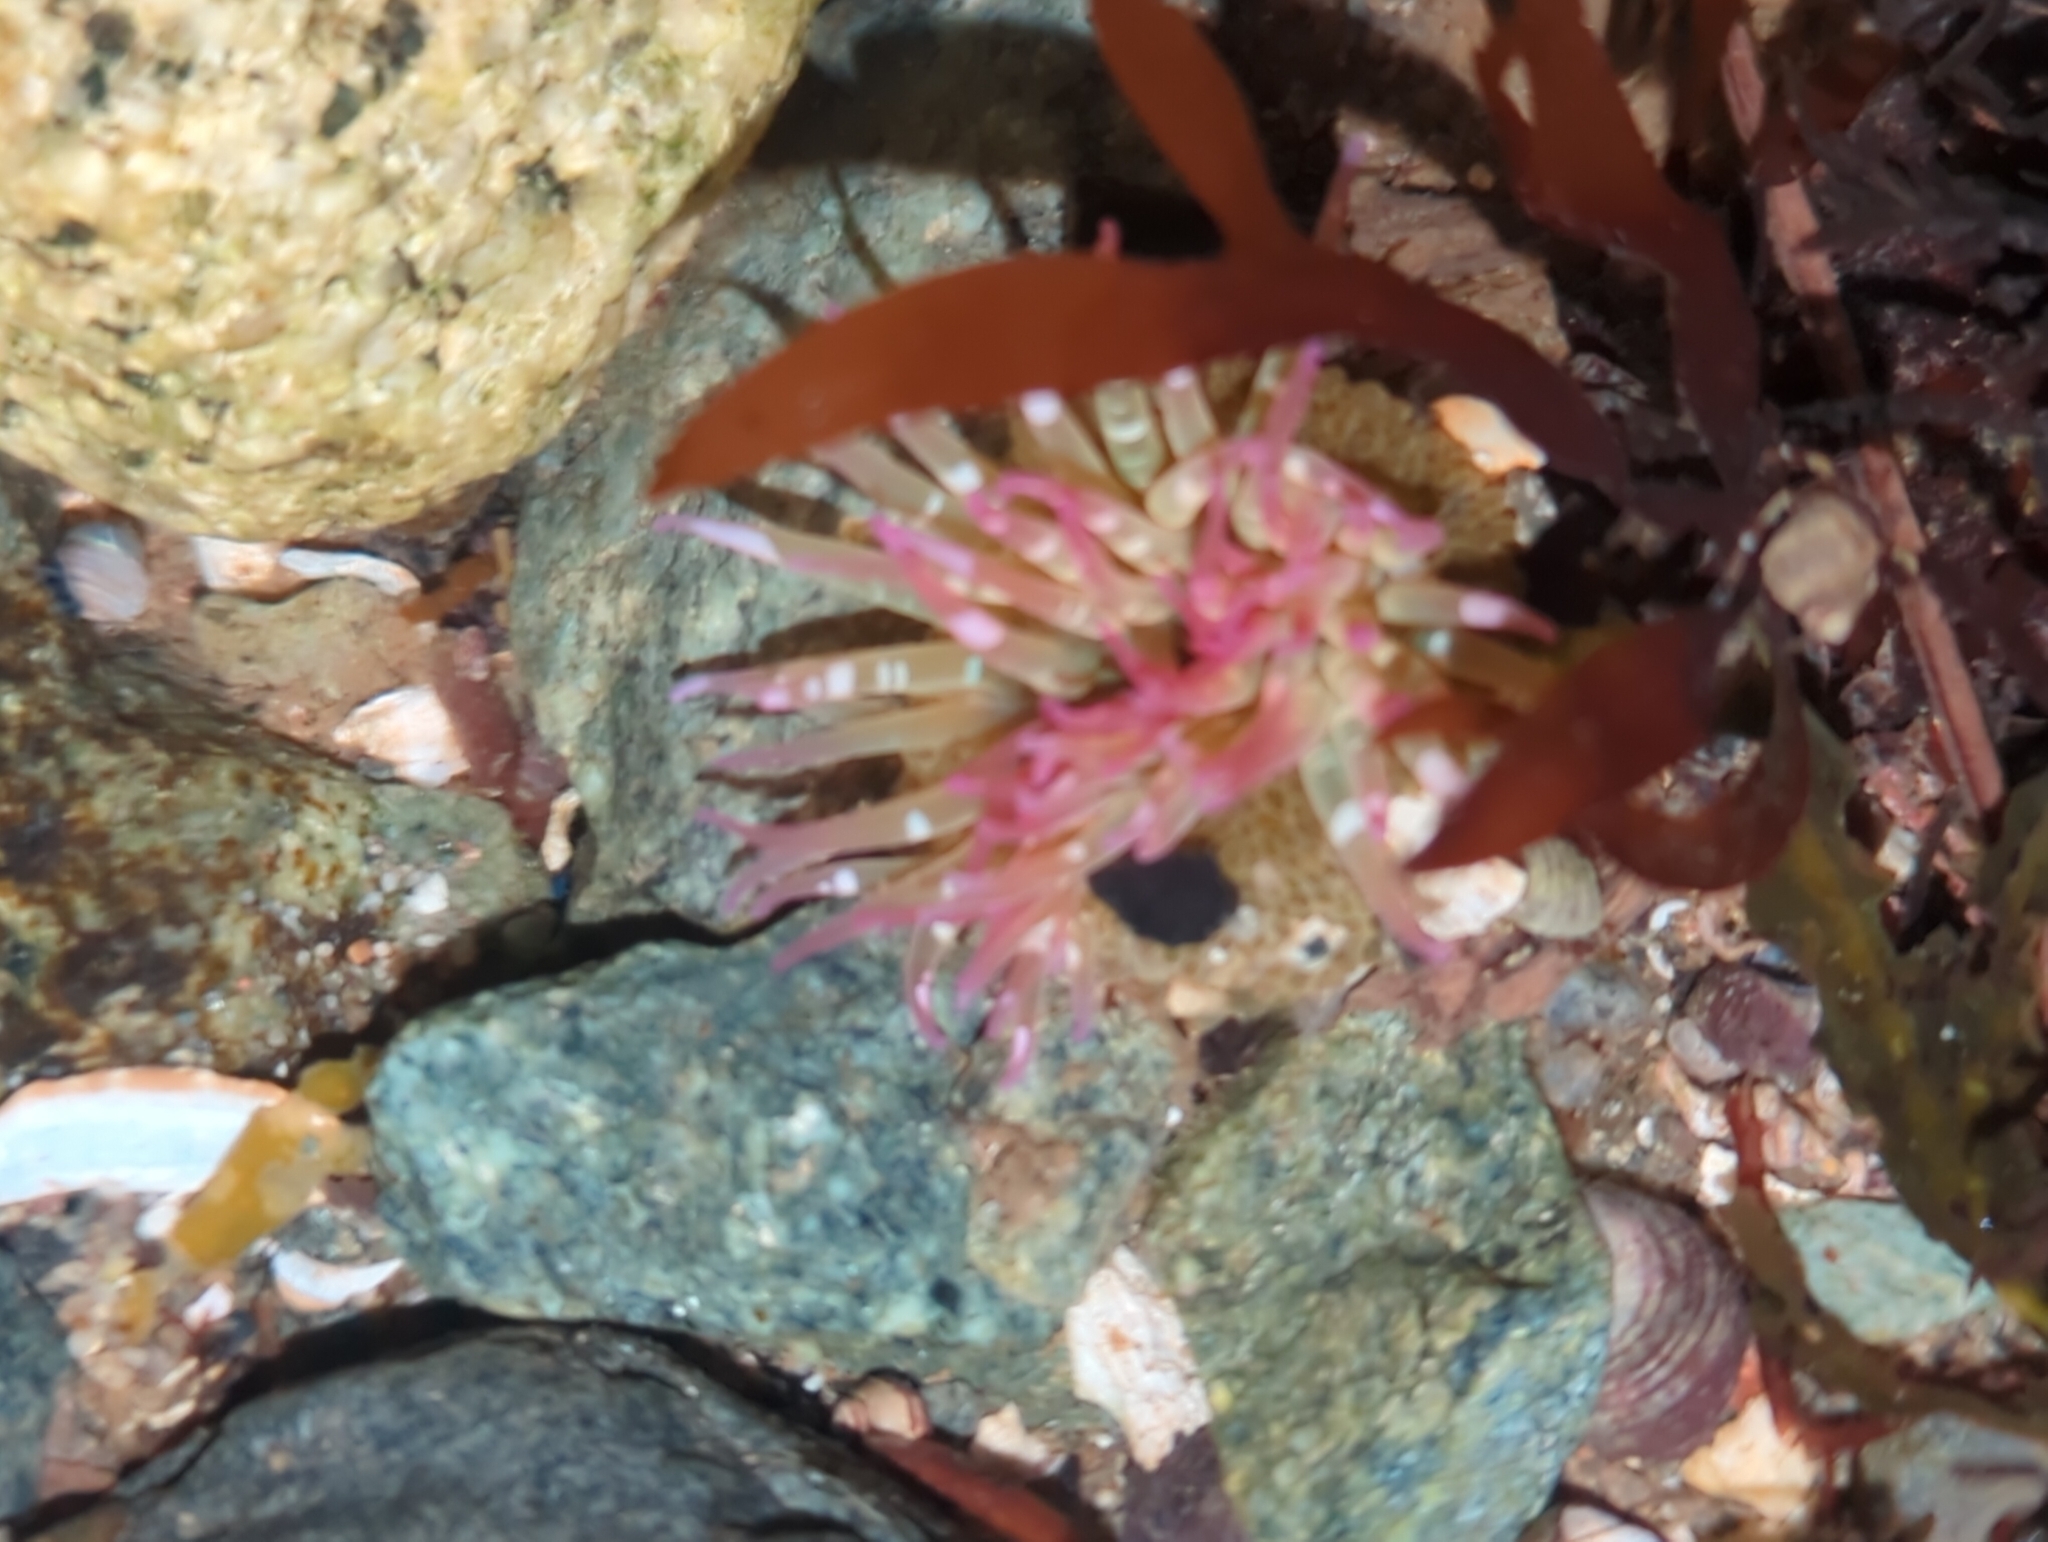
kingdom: Animalia
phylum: Cnidaria
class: Anthozoa
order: Actiniaria
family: Actiniidae
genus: Anthopleura
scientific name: Anthopleura elegantissima
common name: Clonal anemone
